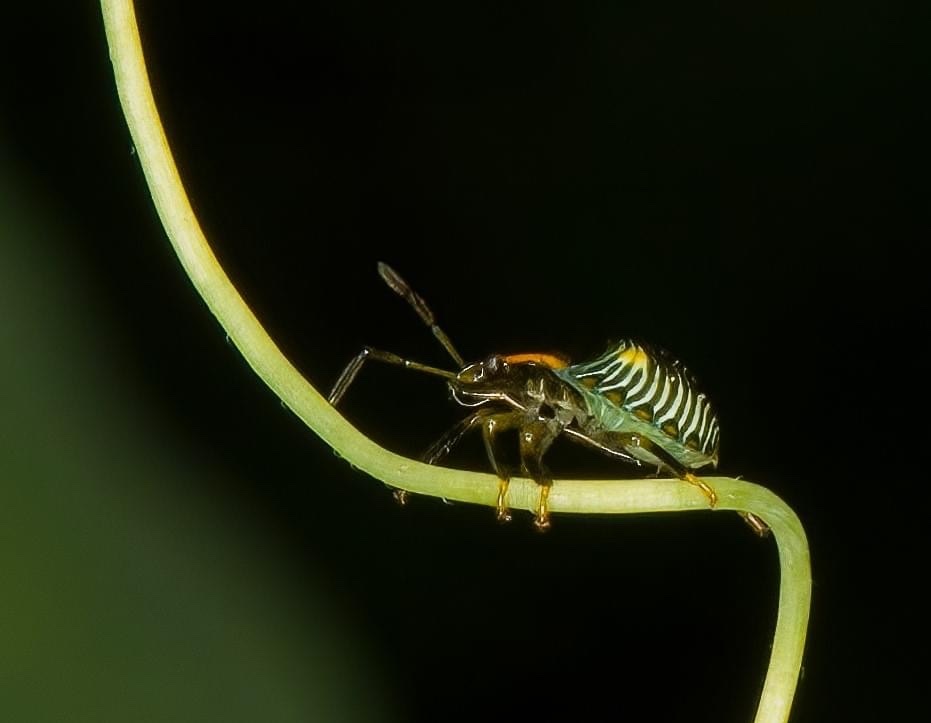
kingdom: Animalia
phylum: Arthropoda
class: Insecta
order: Hemiptera
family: Pentatomidae
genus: Chinavia
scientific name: Chinavia hilaris
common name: Green stink bug
